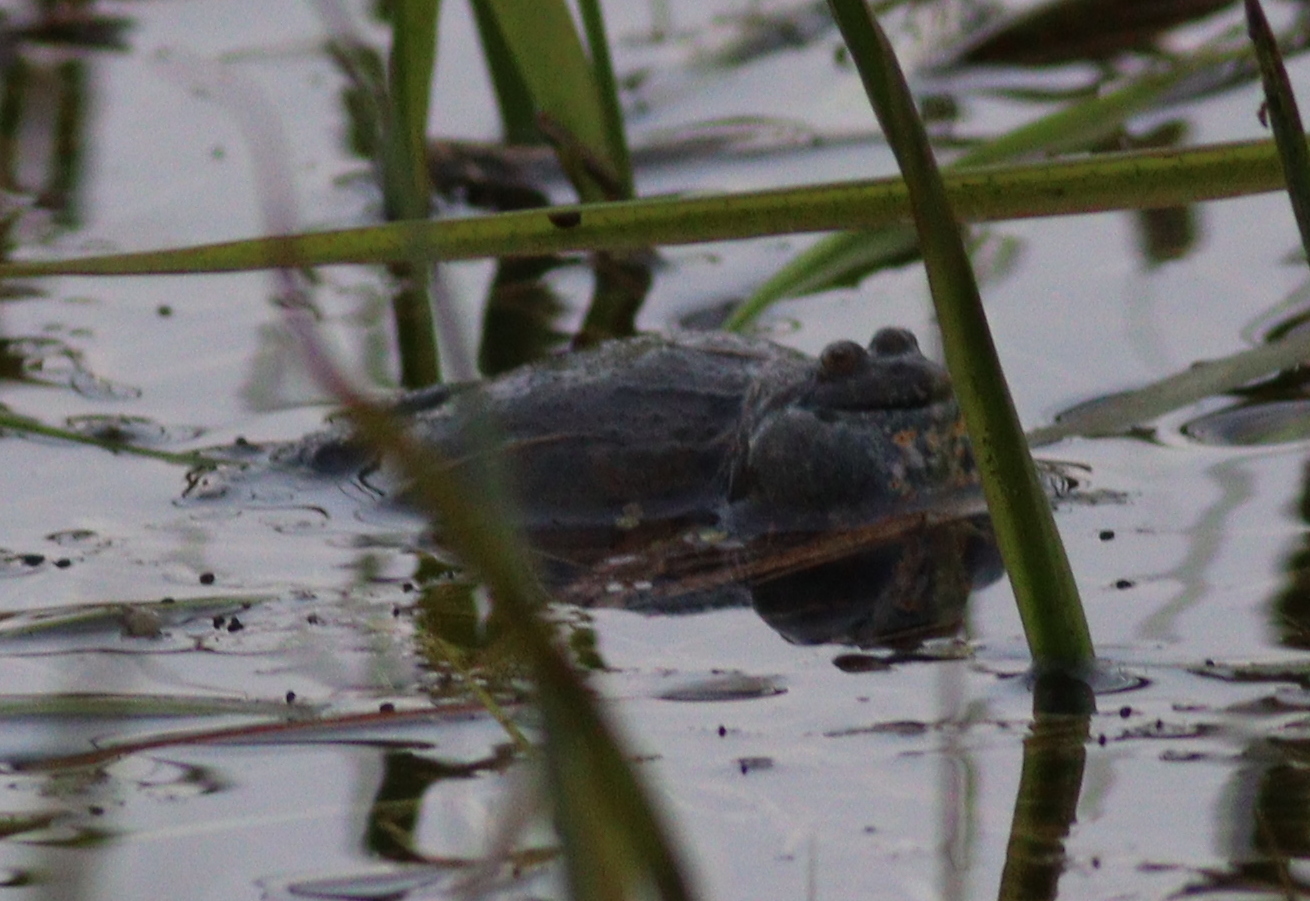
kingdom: Animalia
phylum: Chordata
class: Amphibia
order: Anura
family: Bombinatoridae
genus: Bombina
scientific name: Bombina bombina
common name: Fire-bellied toad
